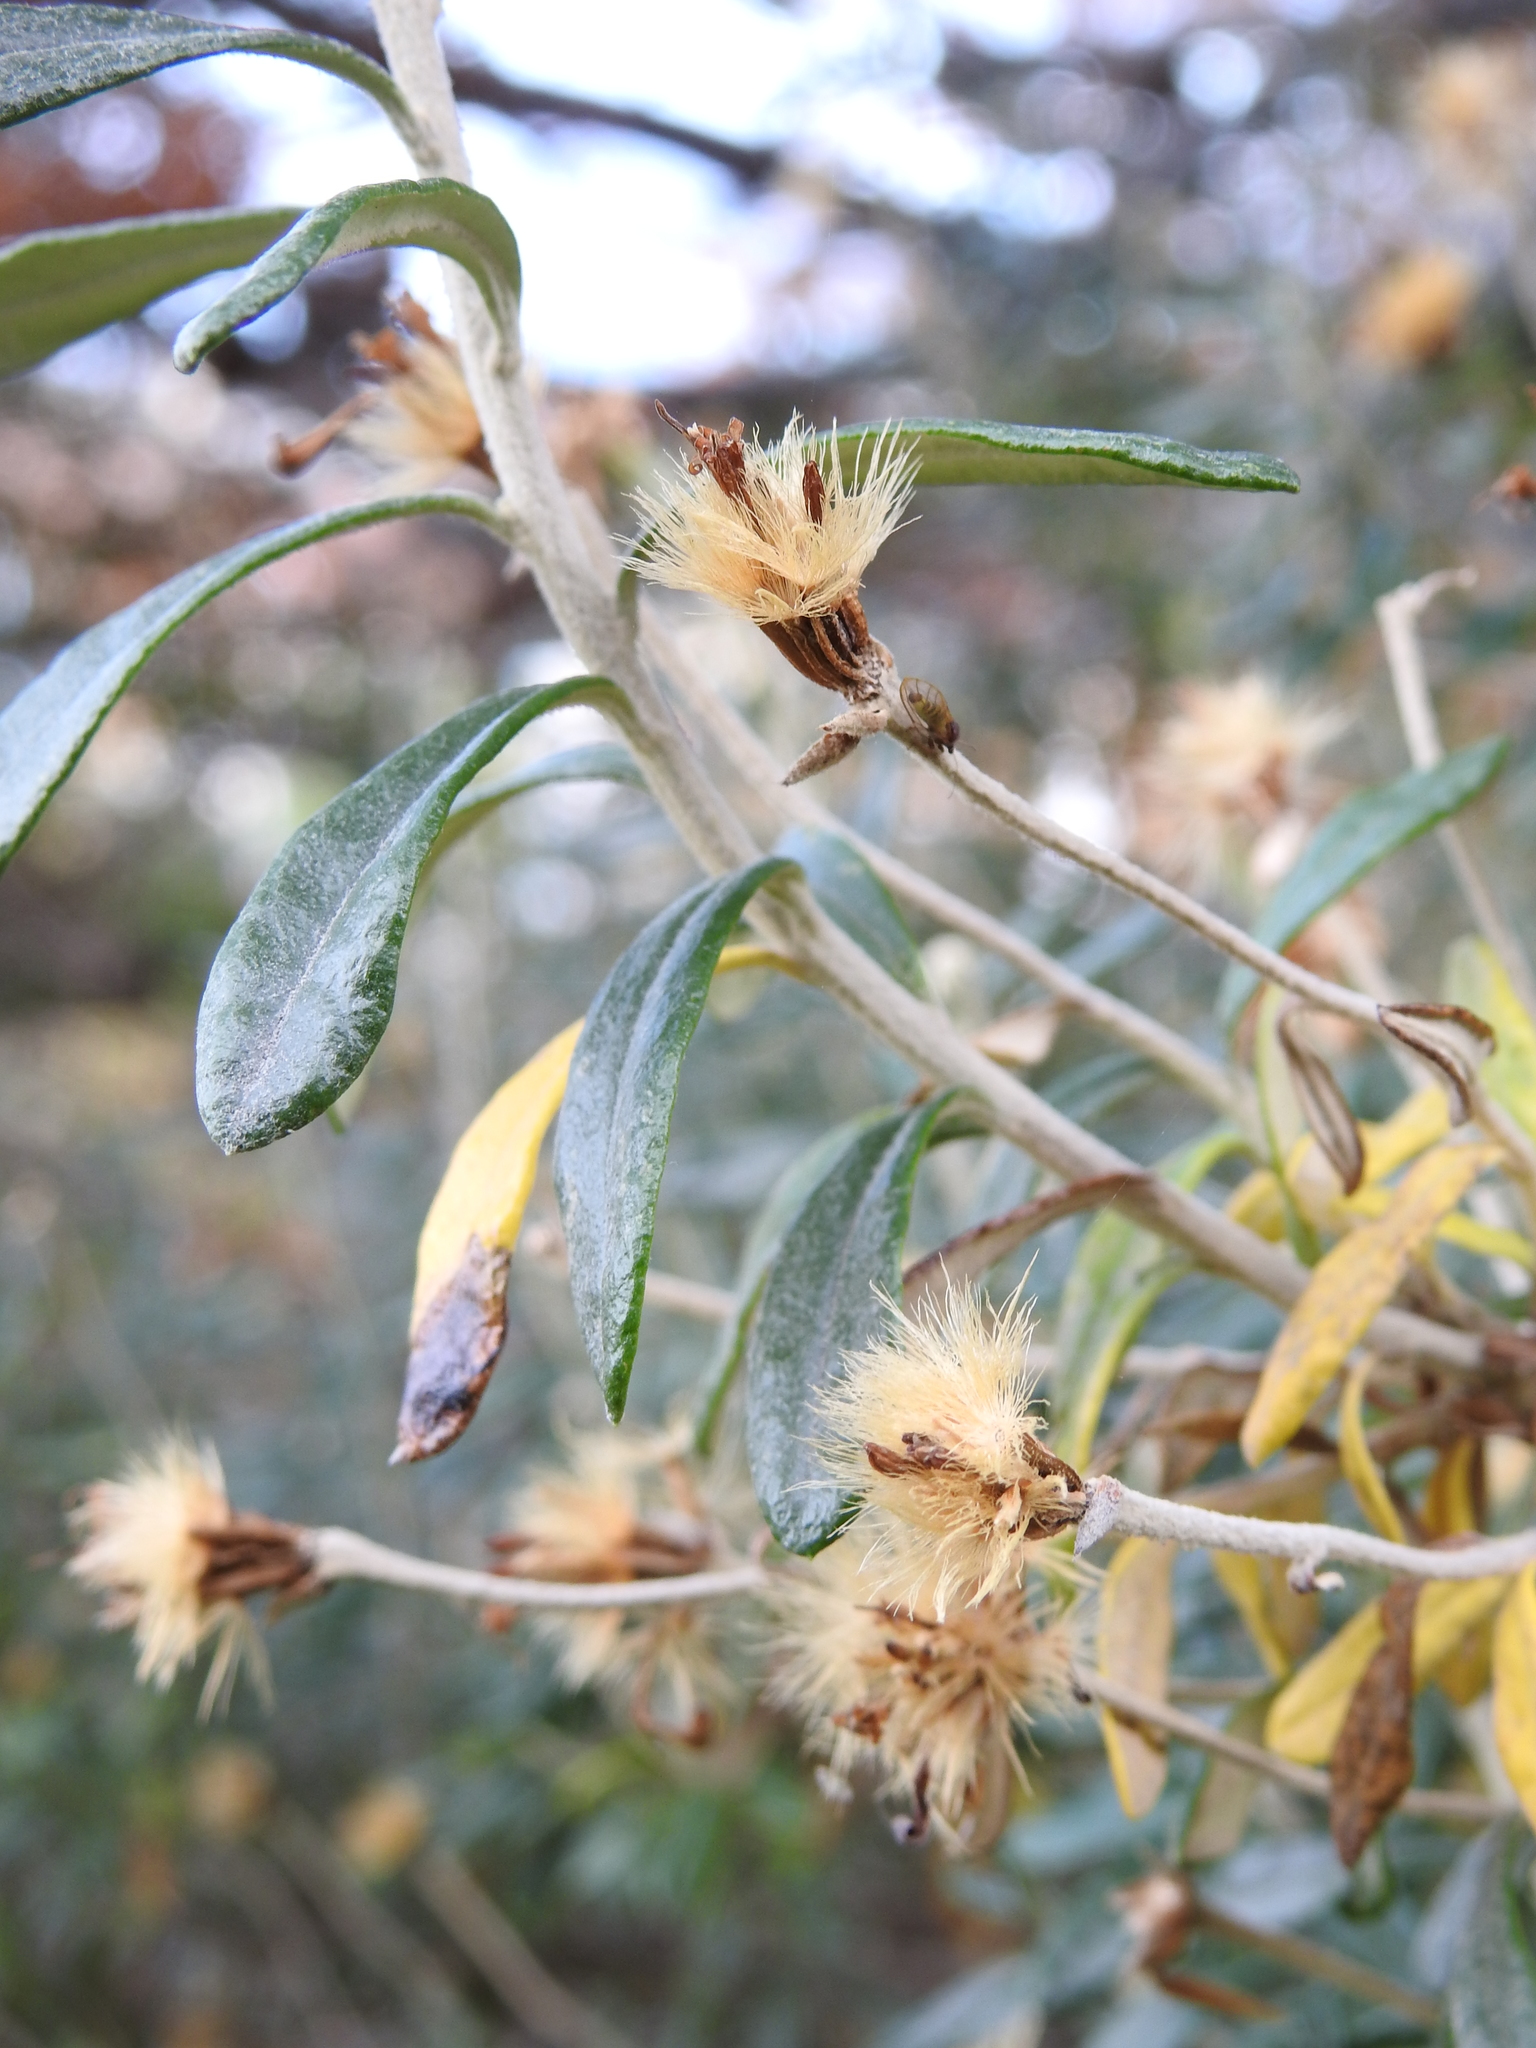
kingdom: Plantae
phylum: Tracheophyta
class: Magnoliopsida
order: Asterales
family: Asteraceae
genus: Chiliotrichum
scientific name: Chiliotrichum diffusum
